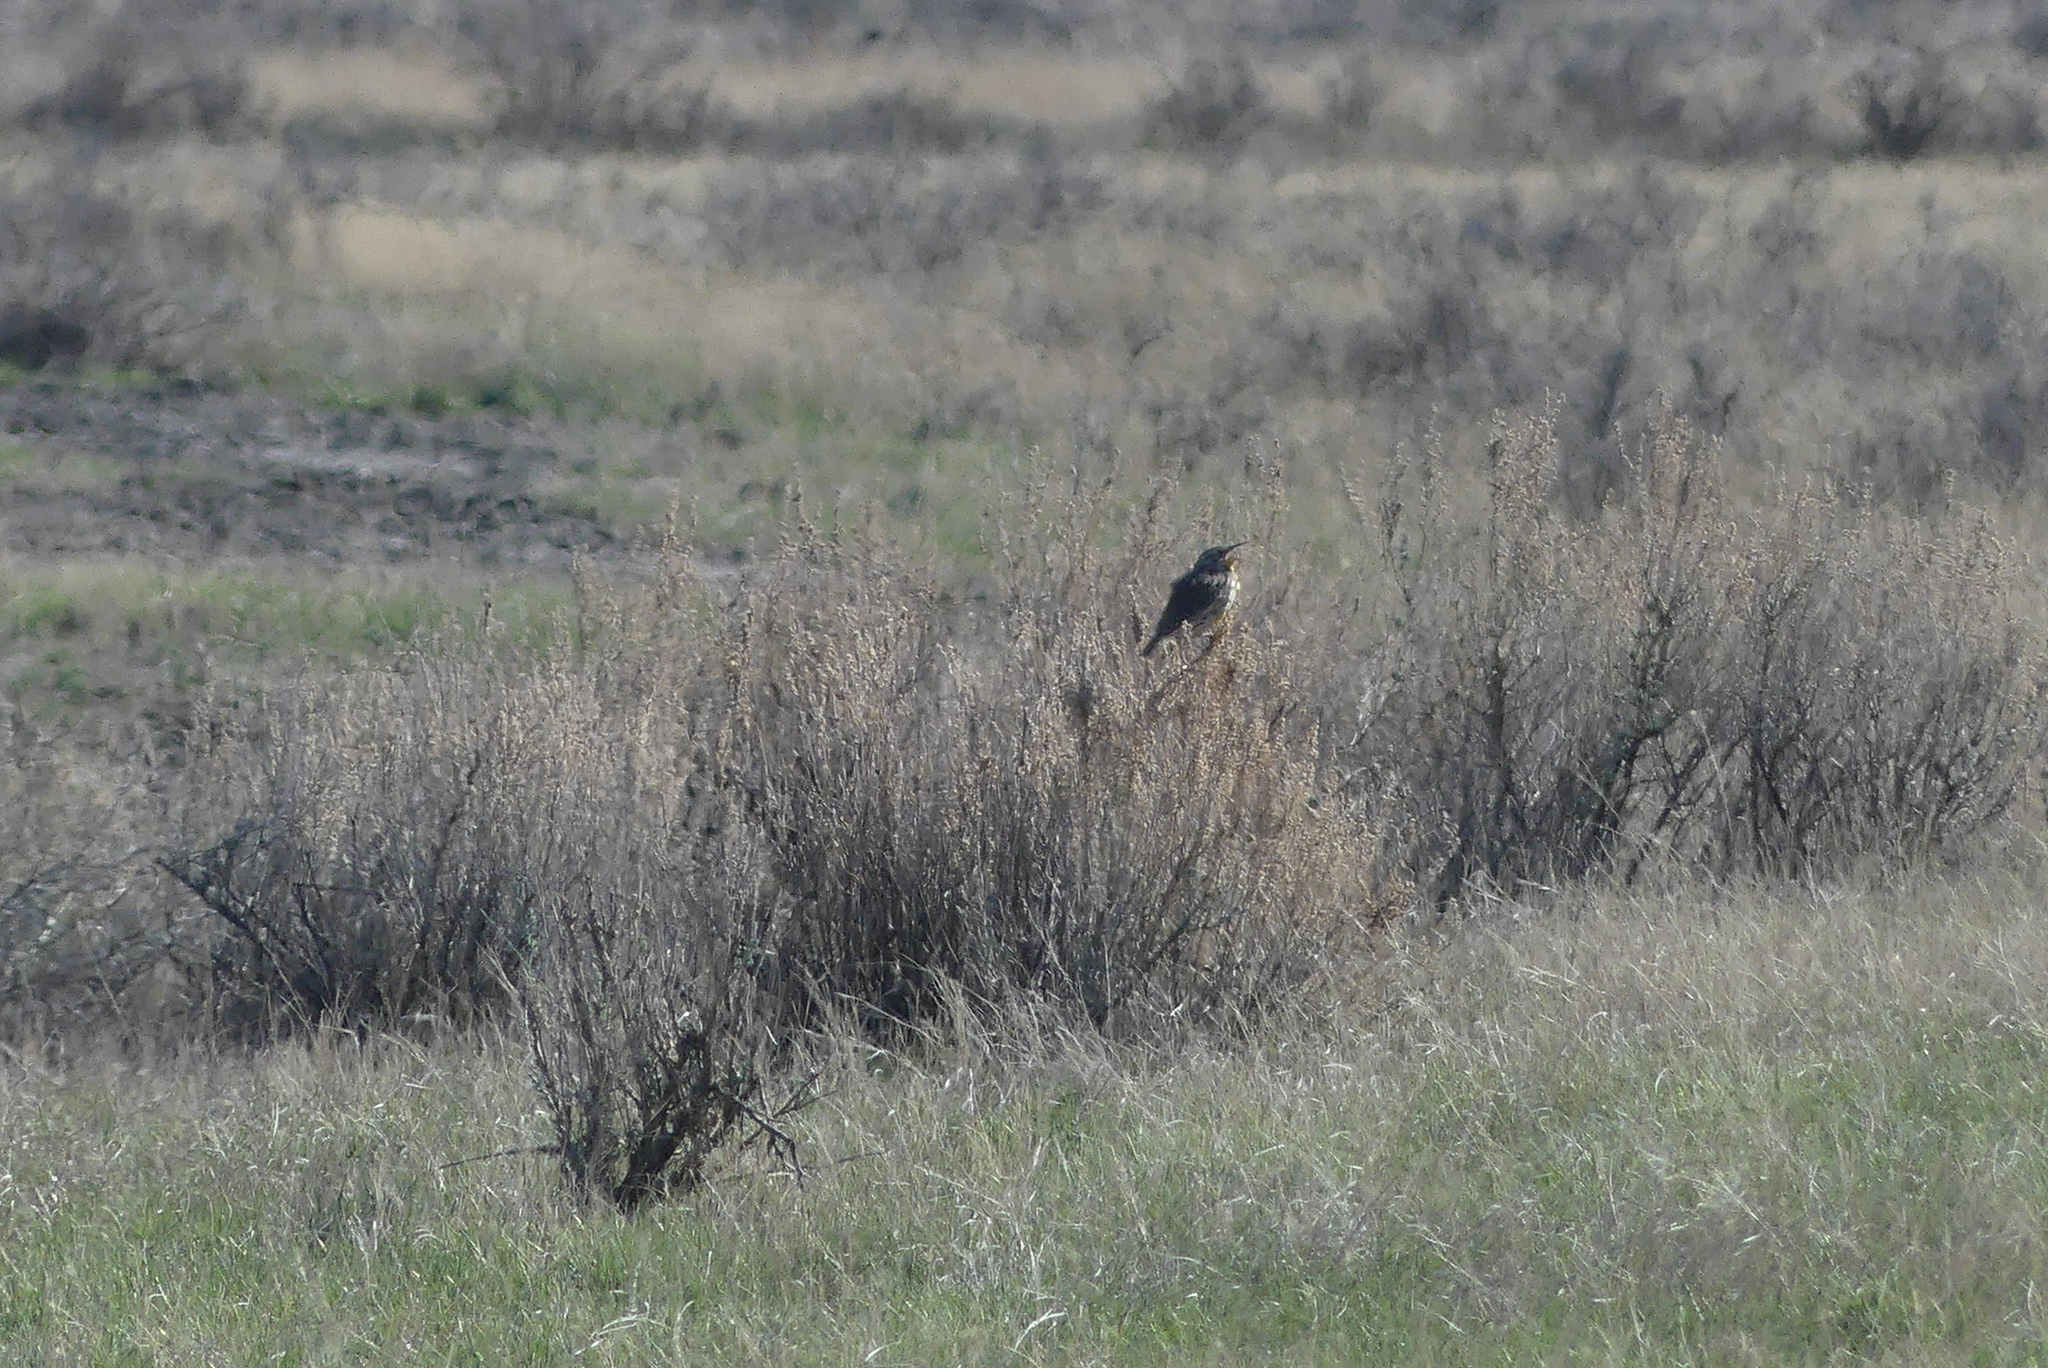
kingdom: Animalia
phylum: Chordata
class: Aves
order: Passeriformes
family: Icteridae
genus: Sturnella
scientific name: Sturnella neglecta
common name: Western meadowlark
